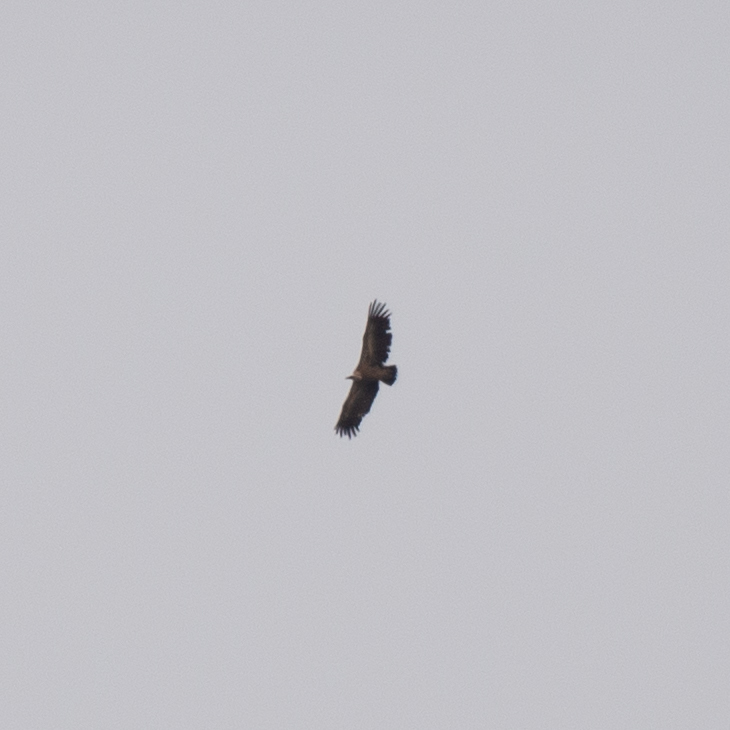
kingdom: Animalia
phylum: Chordata
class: Aves
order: Accipitriformes
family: Accipitridae
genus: Gyps
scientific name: Gyps fulvus
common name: Griffon vulture
